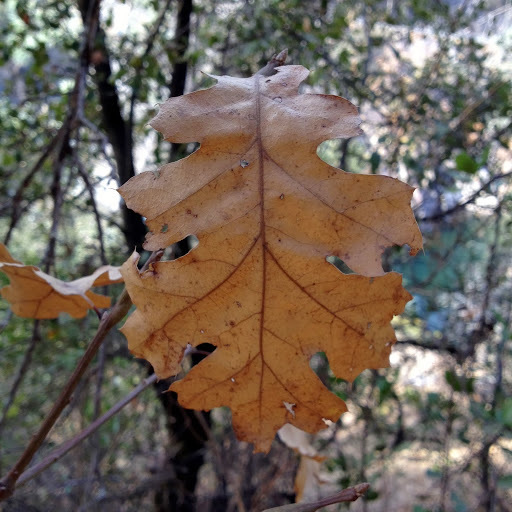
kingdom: Plantae
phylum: Tracheophyta
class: Magnoliopsida
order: Fagales
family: Fagaceae
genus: Quercus
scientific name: Quercus kelloggii
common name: California black oak
